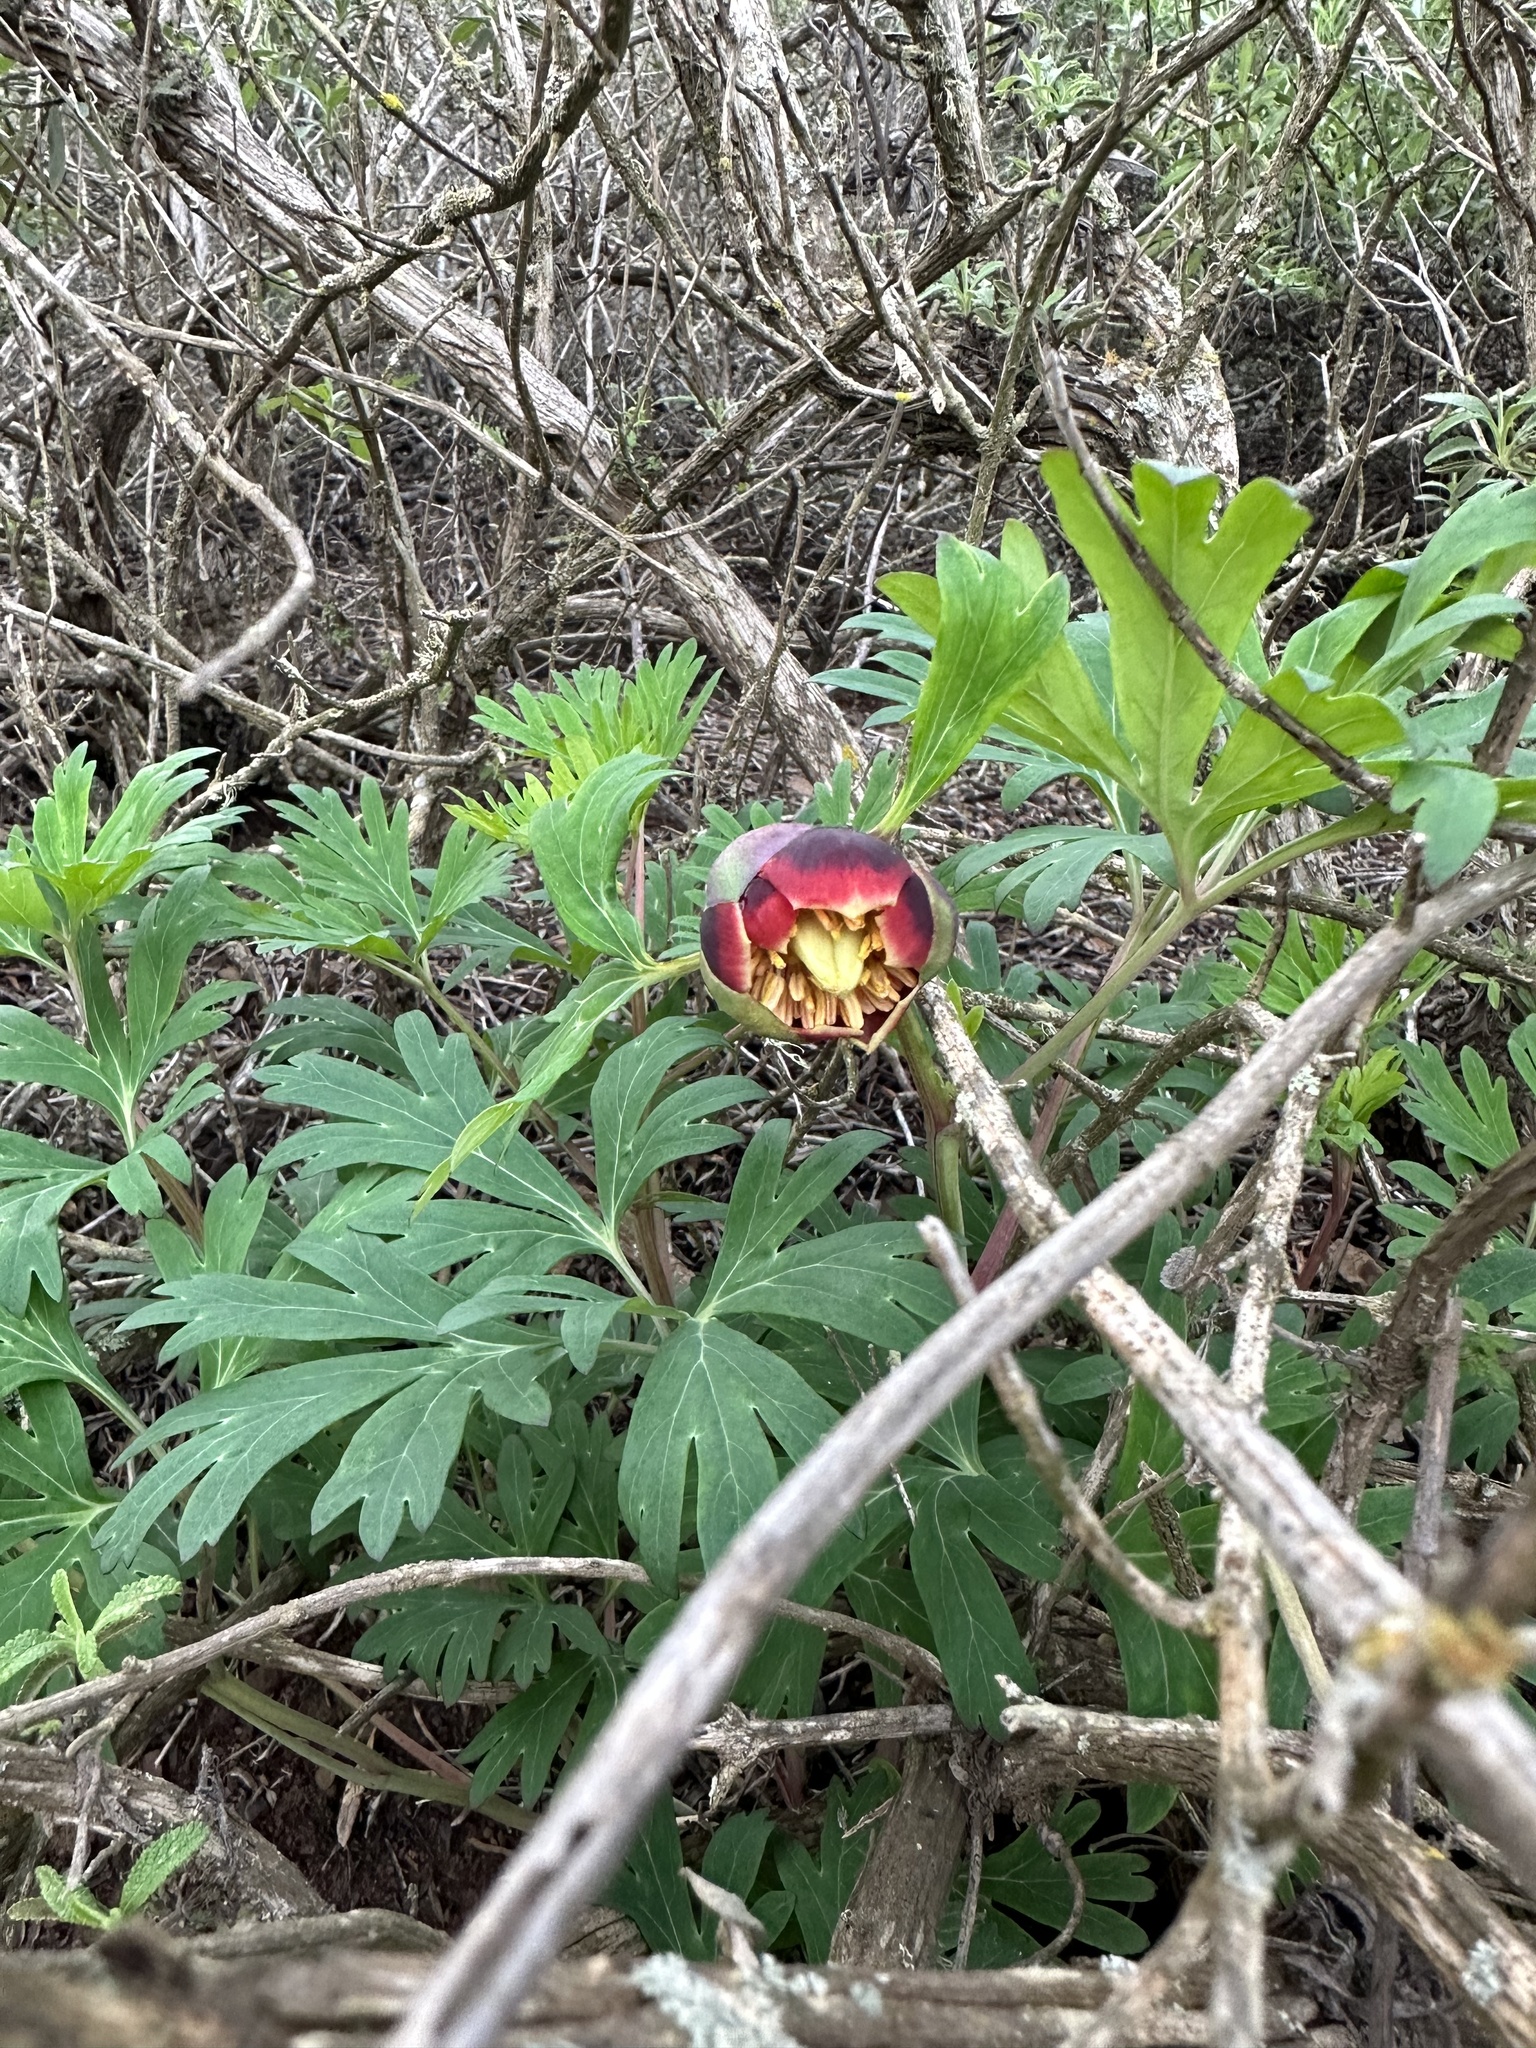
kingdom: Plantae
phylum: Tracheophyta
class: Magnoliopsida
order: Saxifragales
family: Paeoniaceae
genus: Paeonia
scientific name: Paeonia californica
